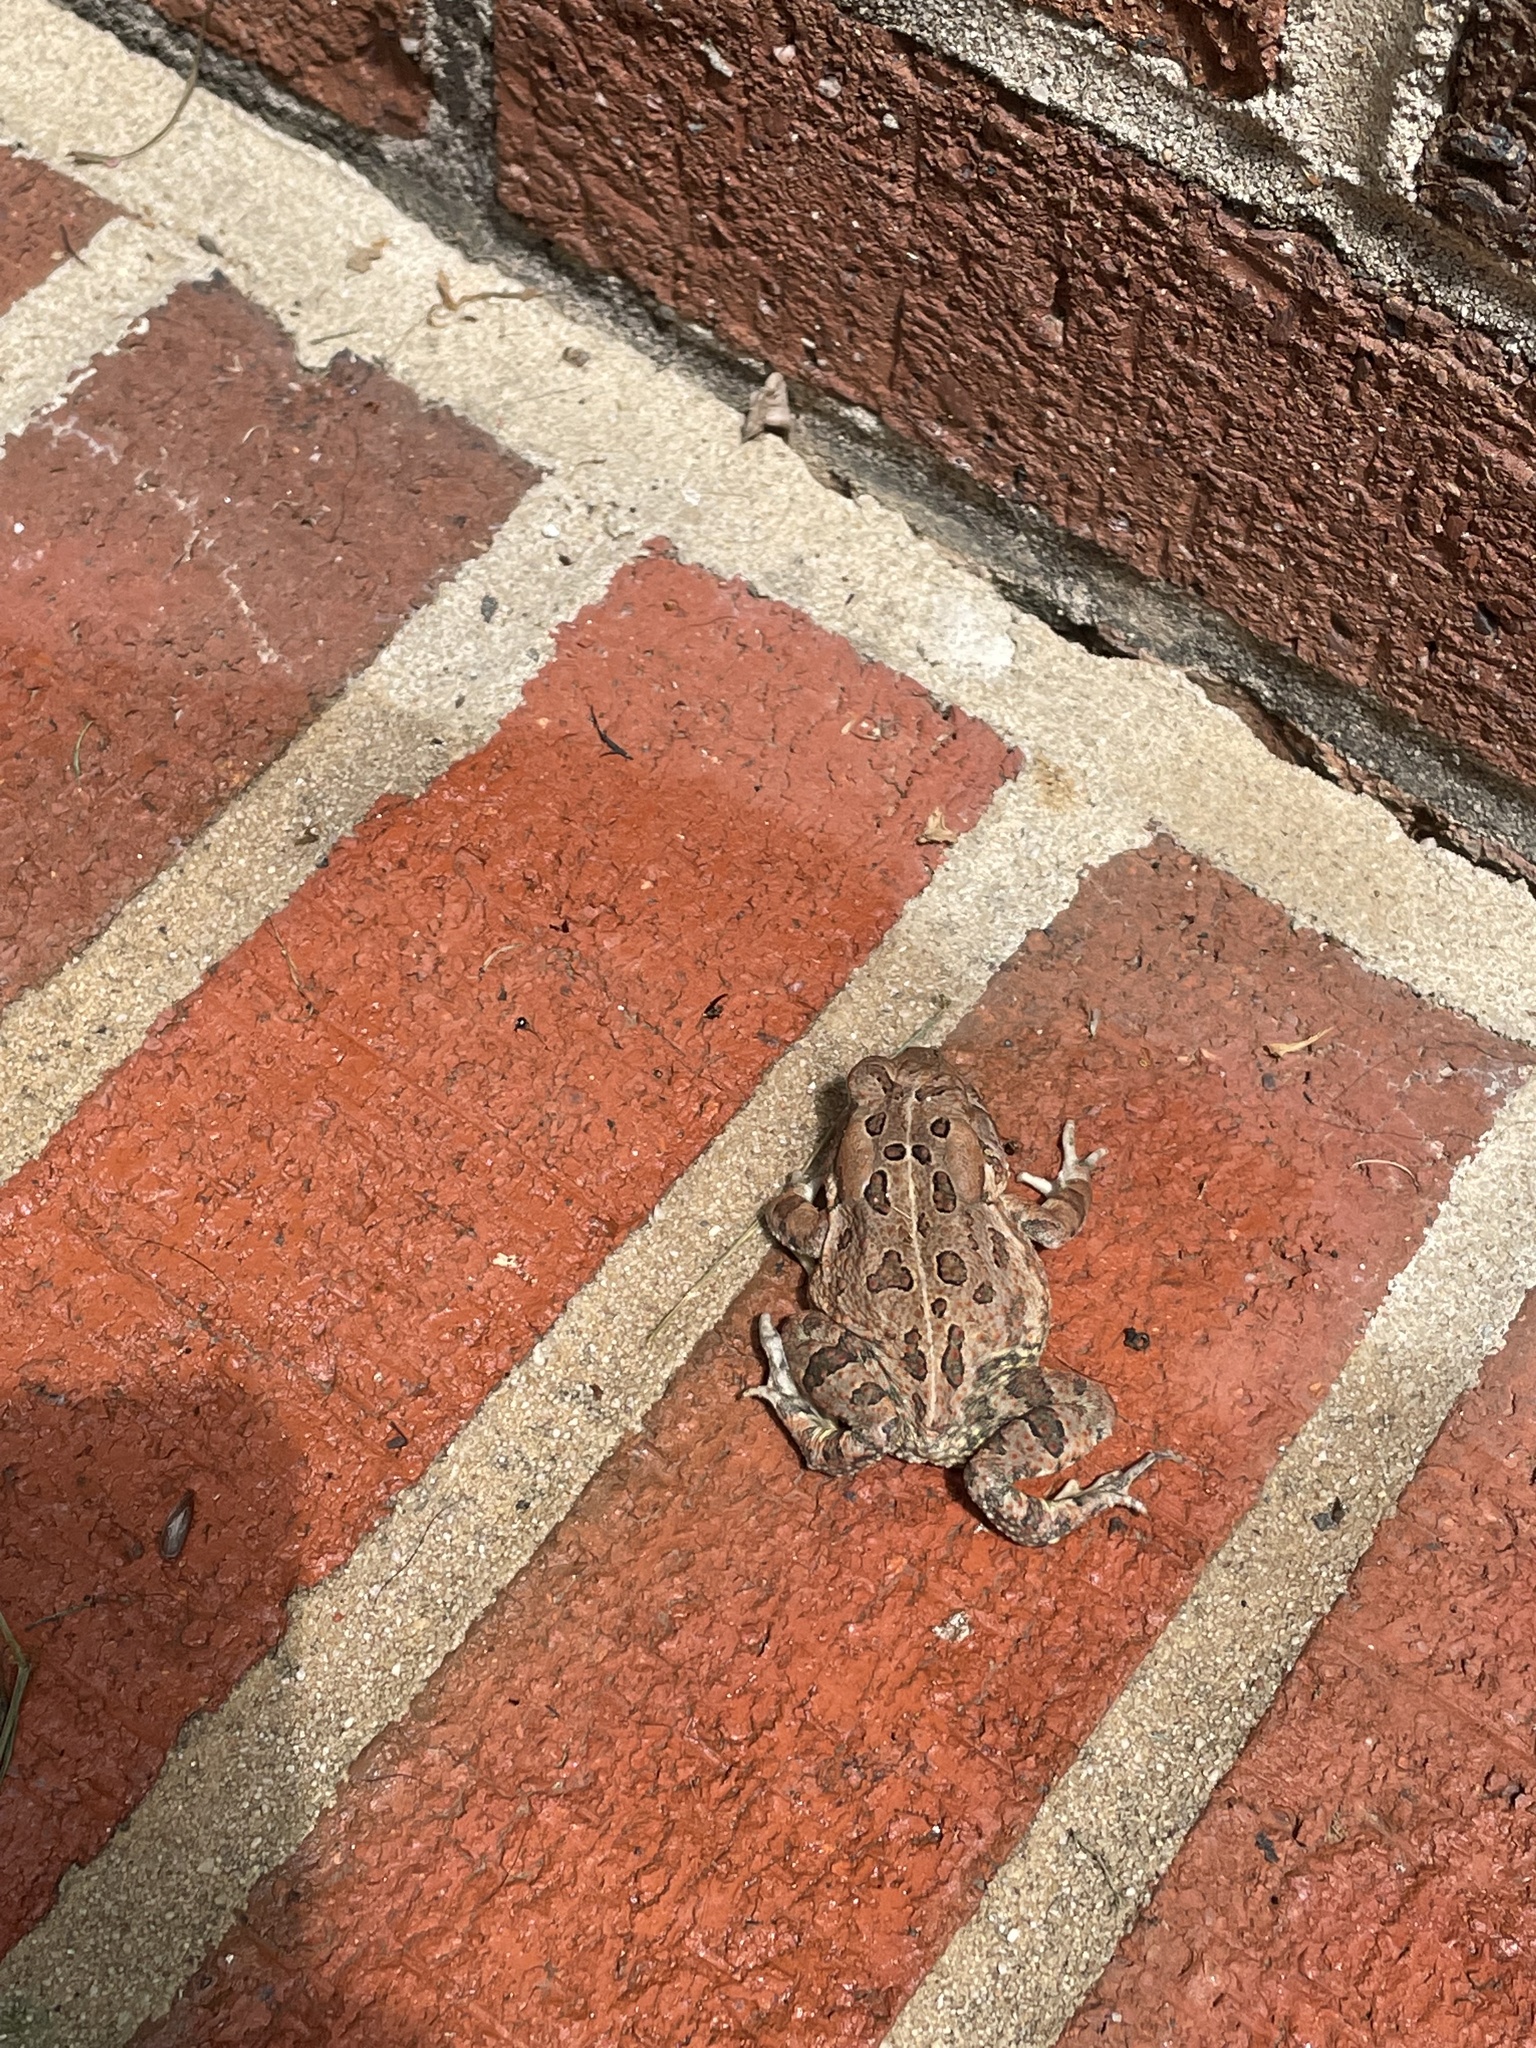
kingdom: Animalia
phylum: Chordata
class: Amphibia
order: Anura
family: Bufonidae
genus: Anaxyrus
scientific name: Anaxyrus fowleri
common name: Fowler's toad
